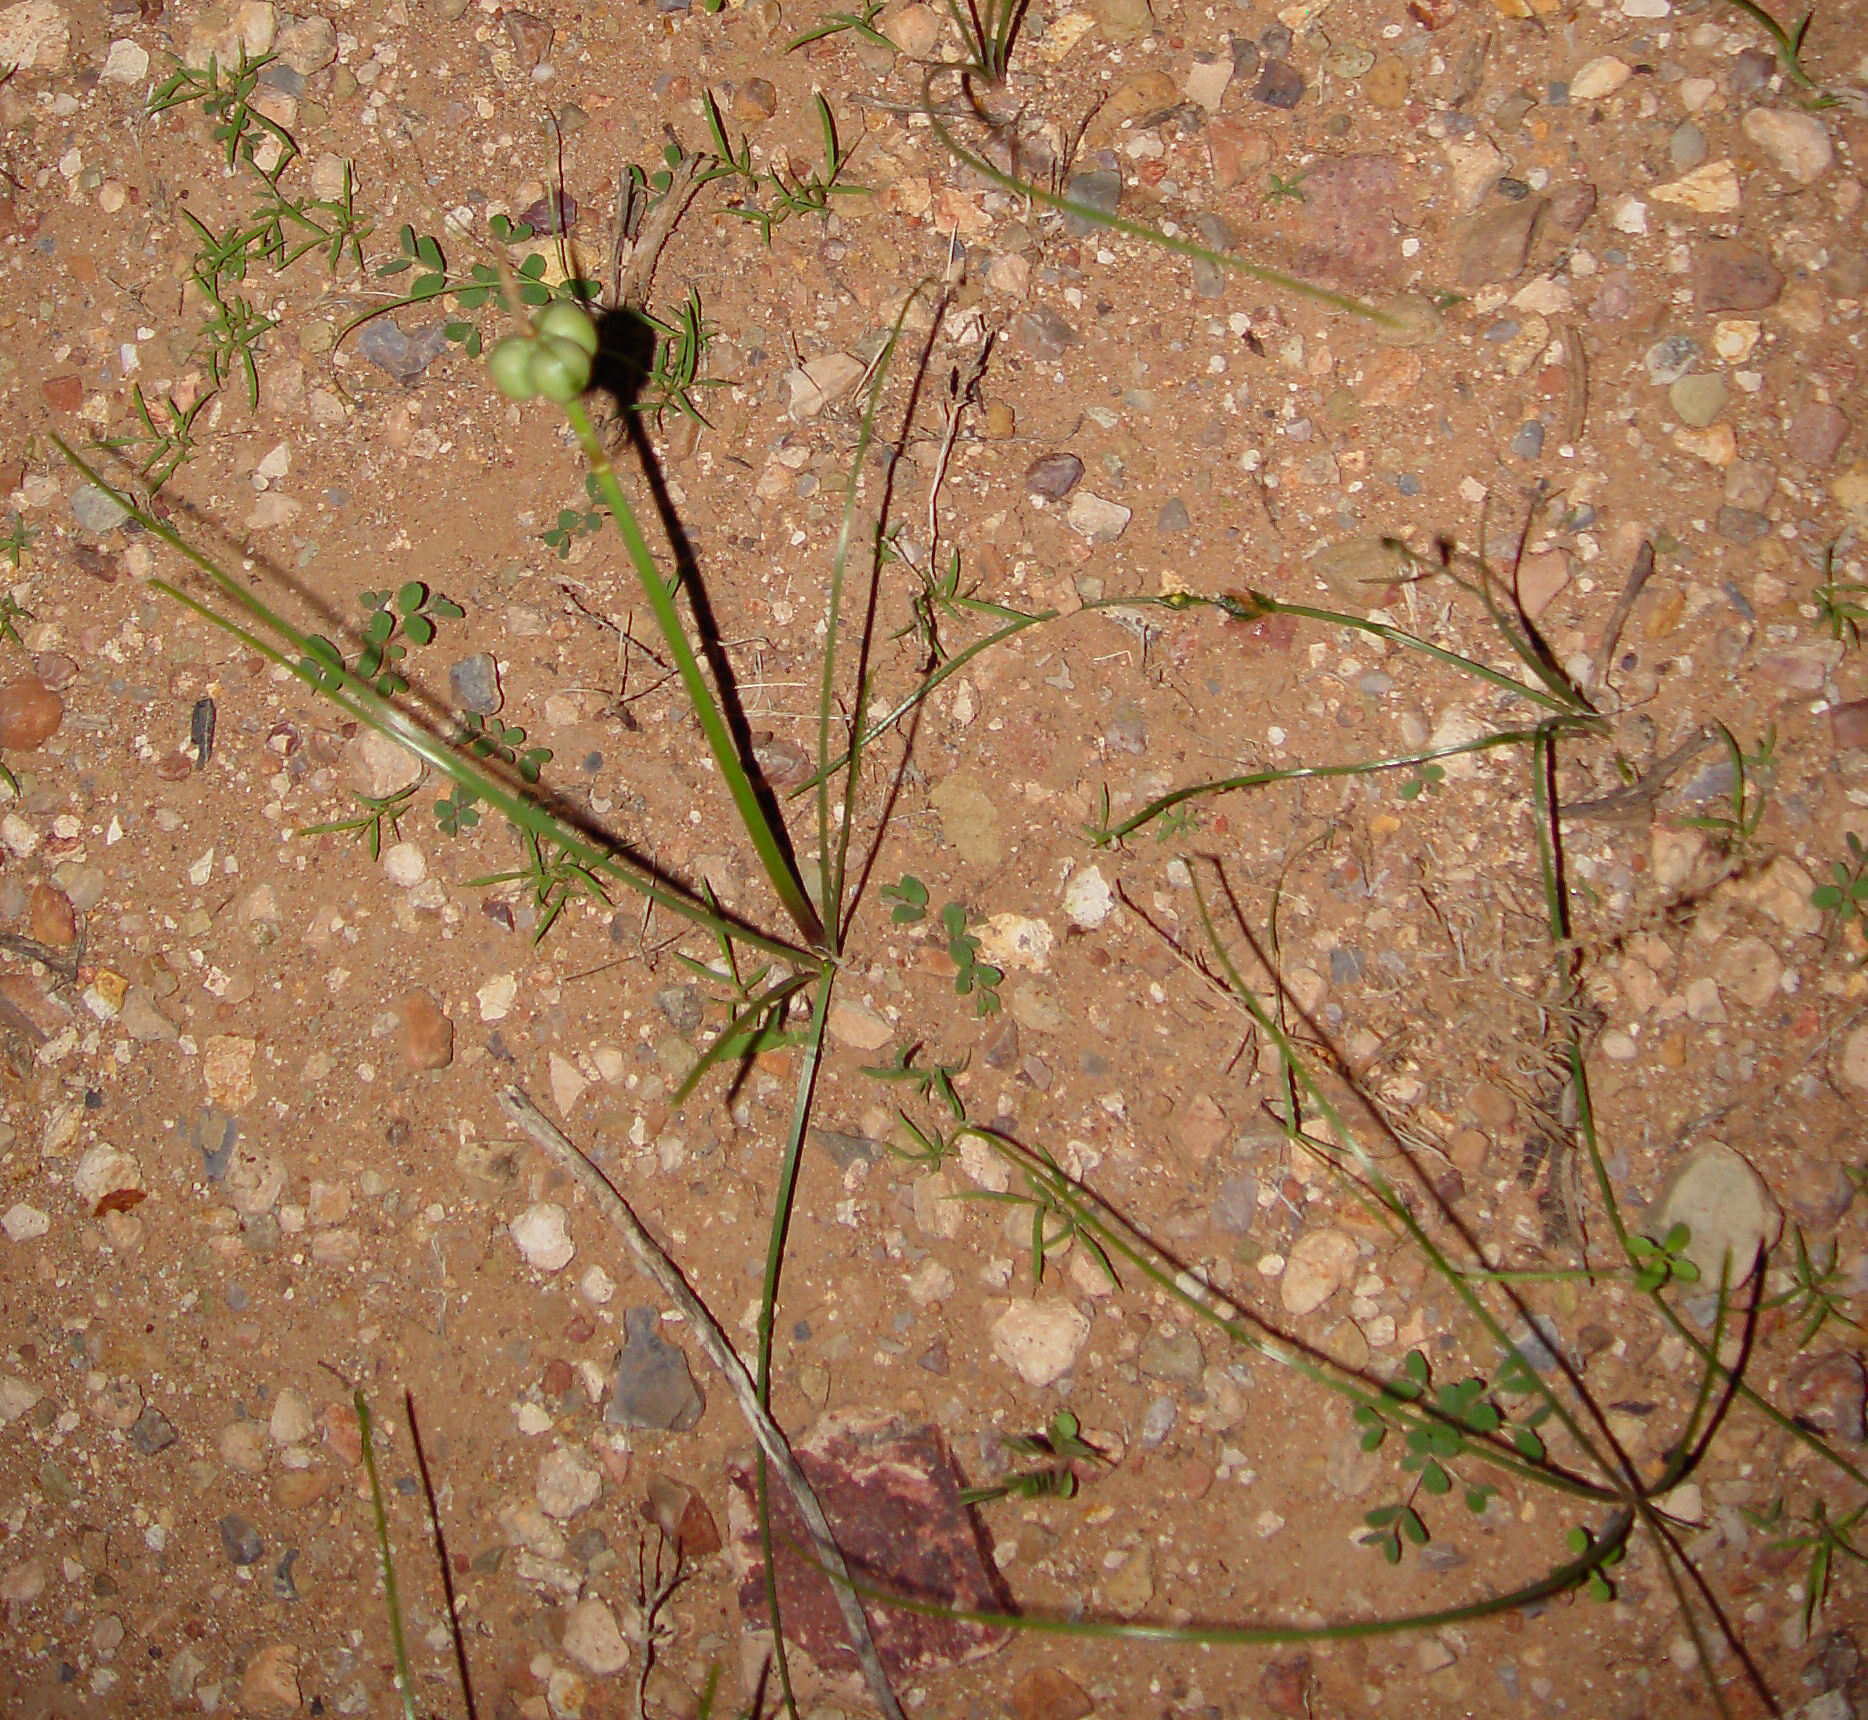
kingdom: Plantae
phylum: Tracheophyta
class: Liliopsida
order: Asparagales
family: Amaryllidaceae
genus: Zephyranthes
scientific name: Zephyranthes longifolia
